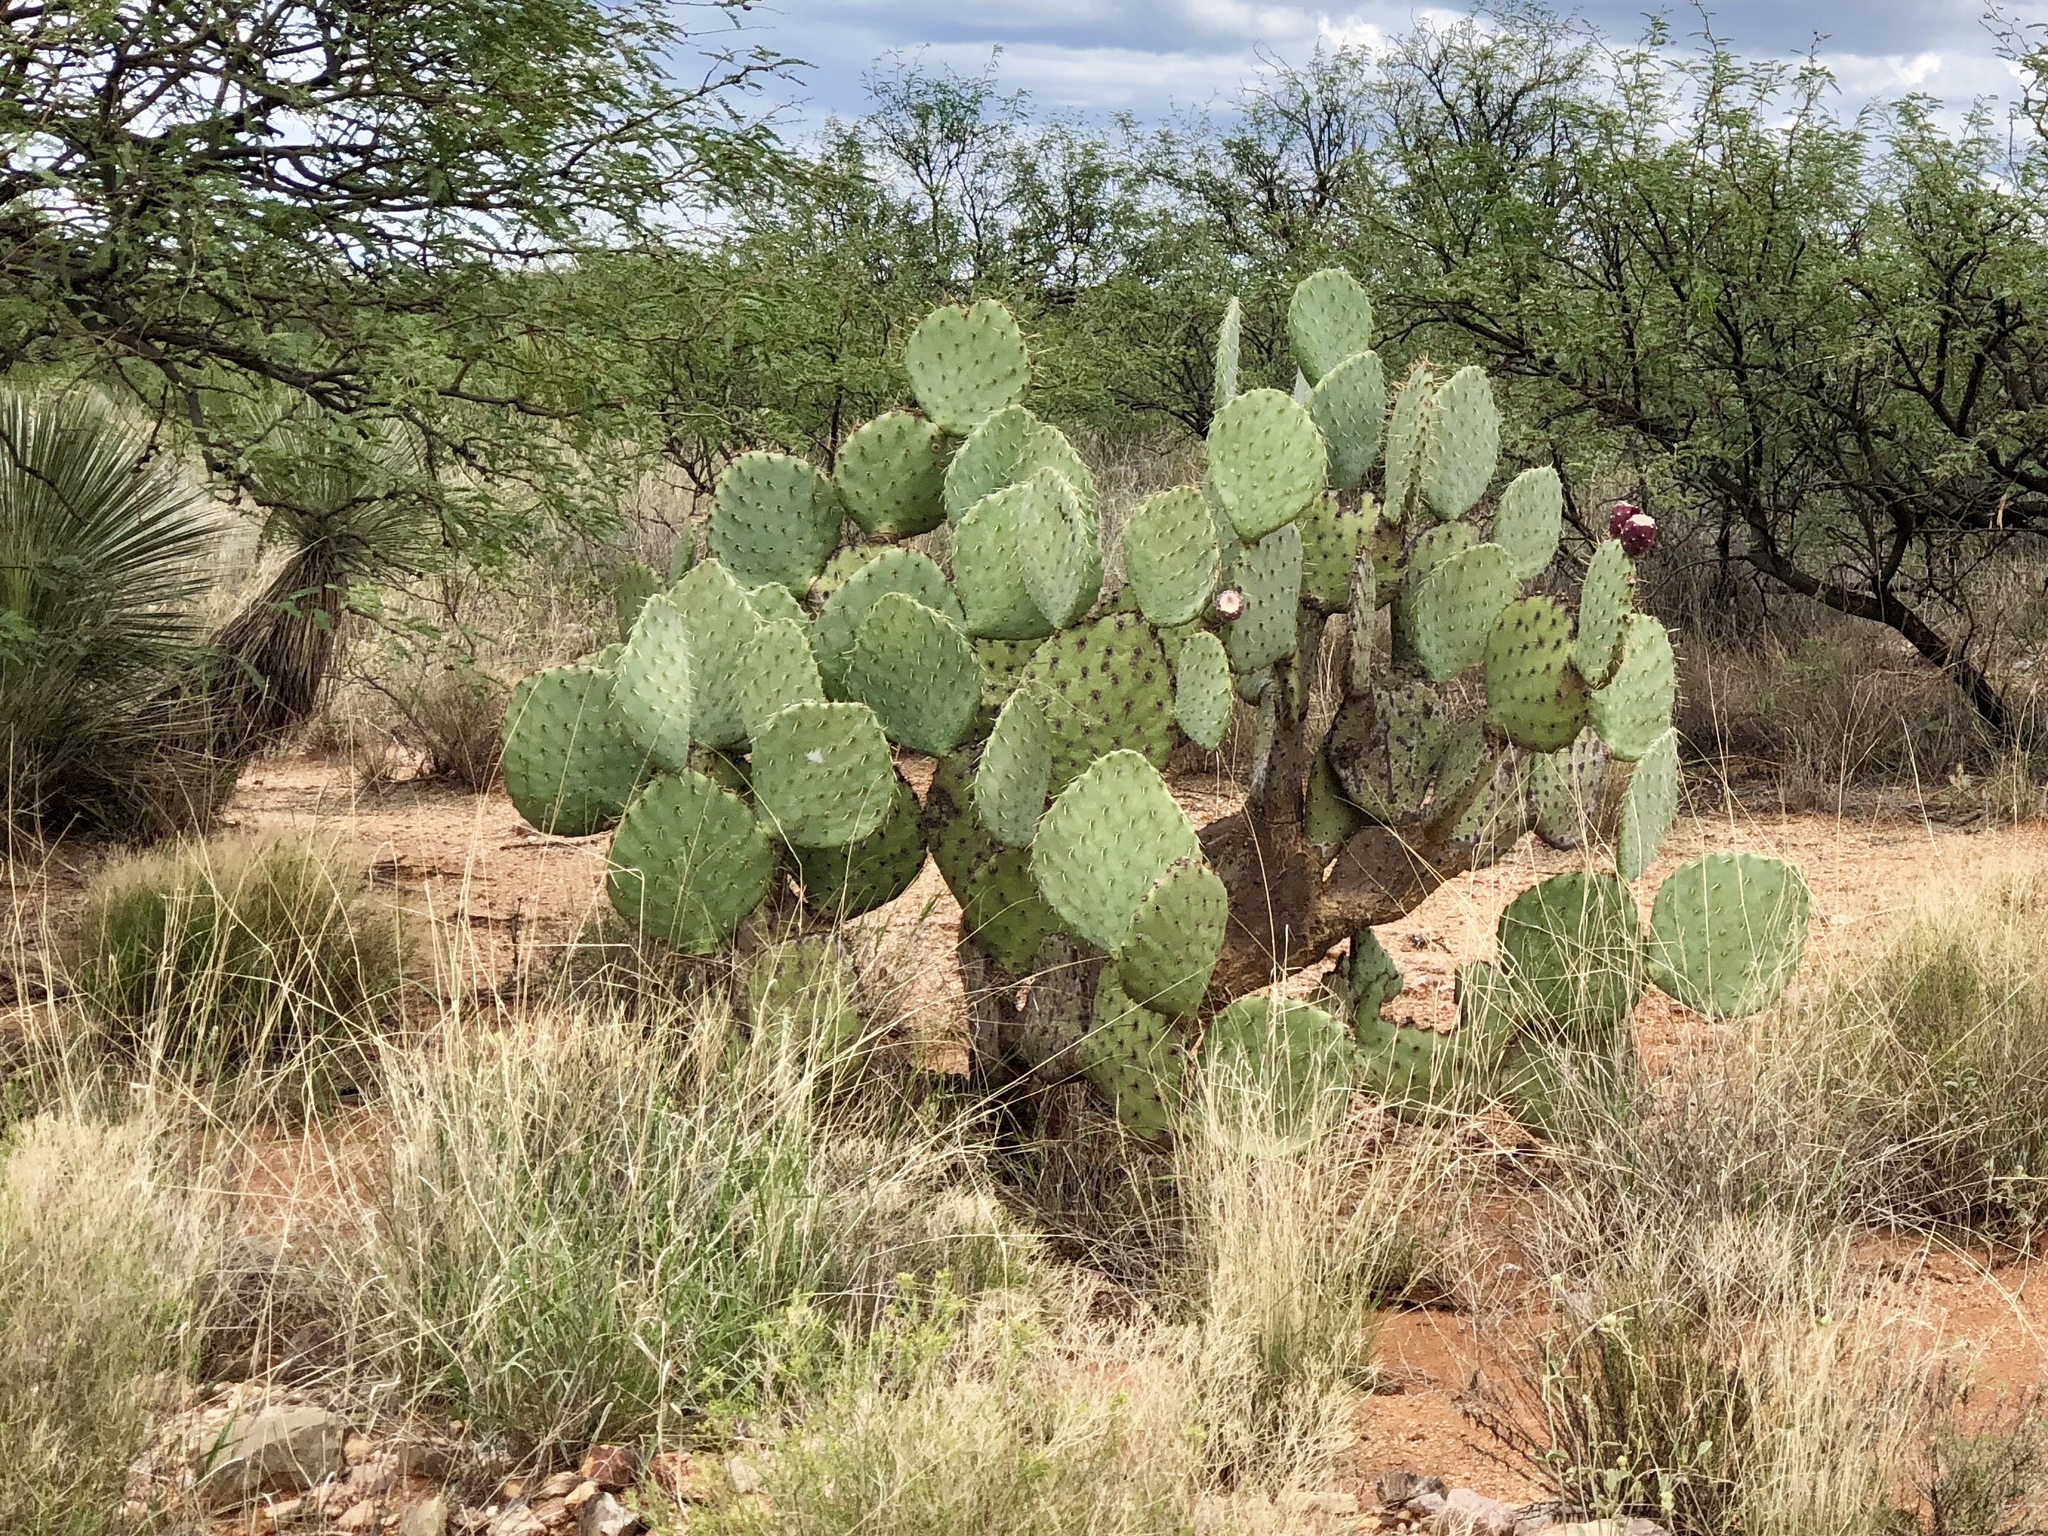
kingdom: Plantae
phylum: Tracheophyta
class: Magnoliopsida
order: Caryophyllales
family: Cactaceae
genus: Opuntia
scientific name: Opuntia engelmannii
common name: Cactus-apple
